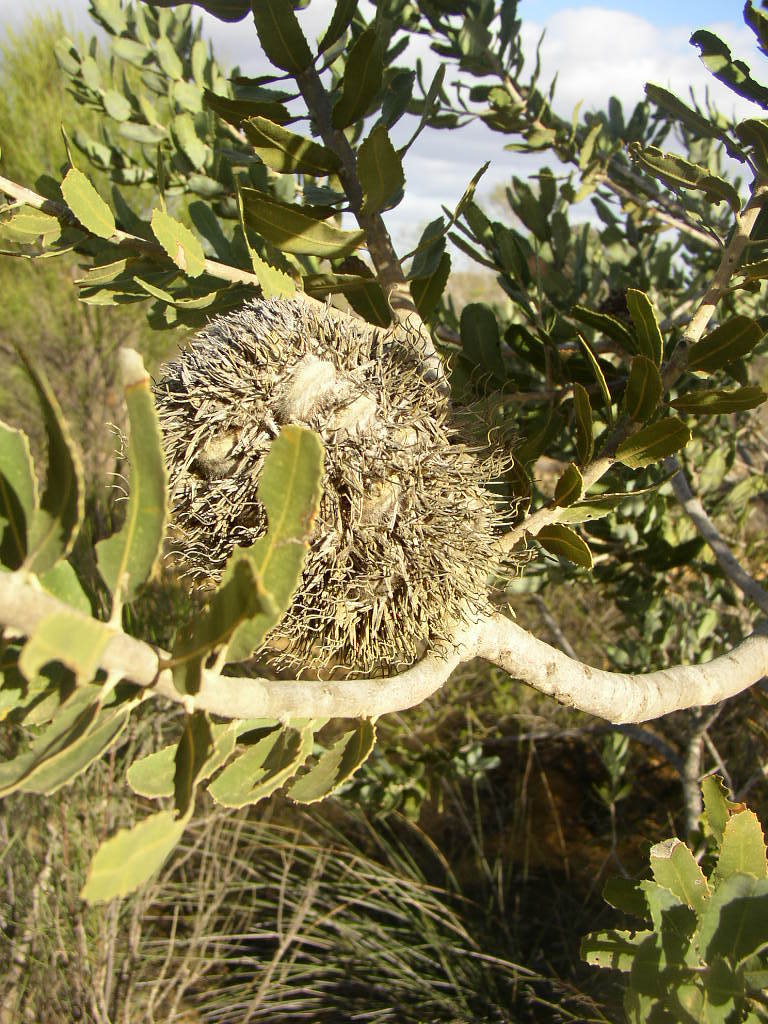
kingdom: Plantae
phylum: Tracheophyta
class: Magnoliopsida
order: Proteales
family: Proteaceae
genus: Banksia
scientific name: Banksia sceptrum
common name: Sceptre banksia
